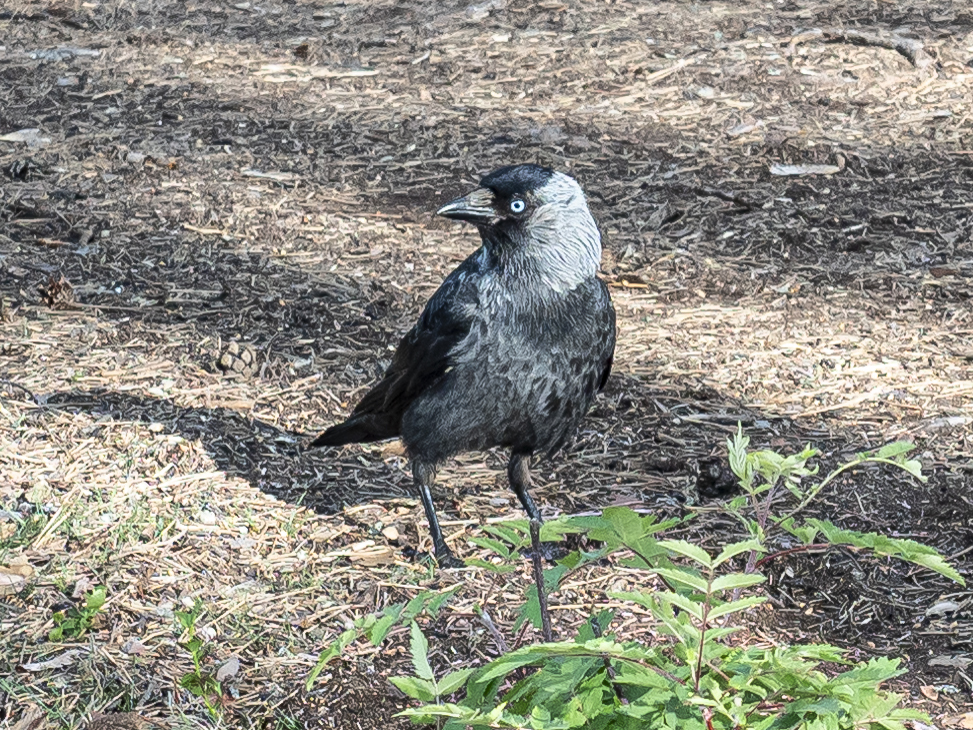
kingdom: Animalia
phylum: Chordata
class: Aves
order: Passeriformes
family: Corvidae
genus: Coloeus
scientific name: Coloeus monedula
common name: Western jackdaw
